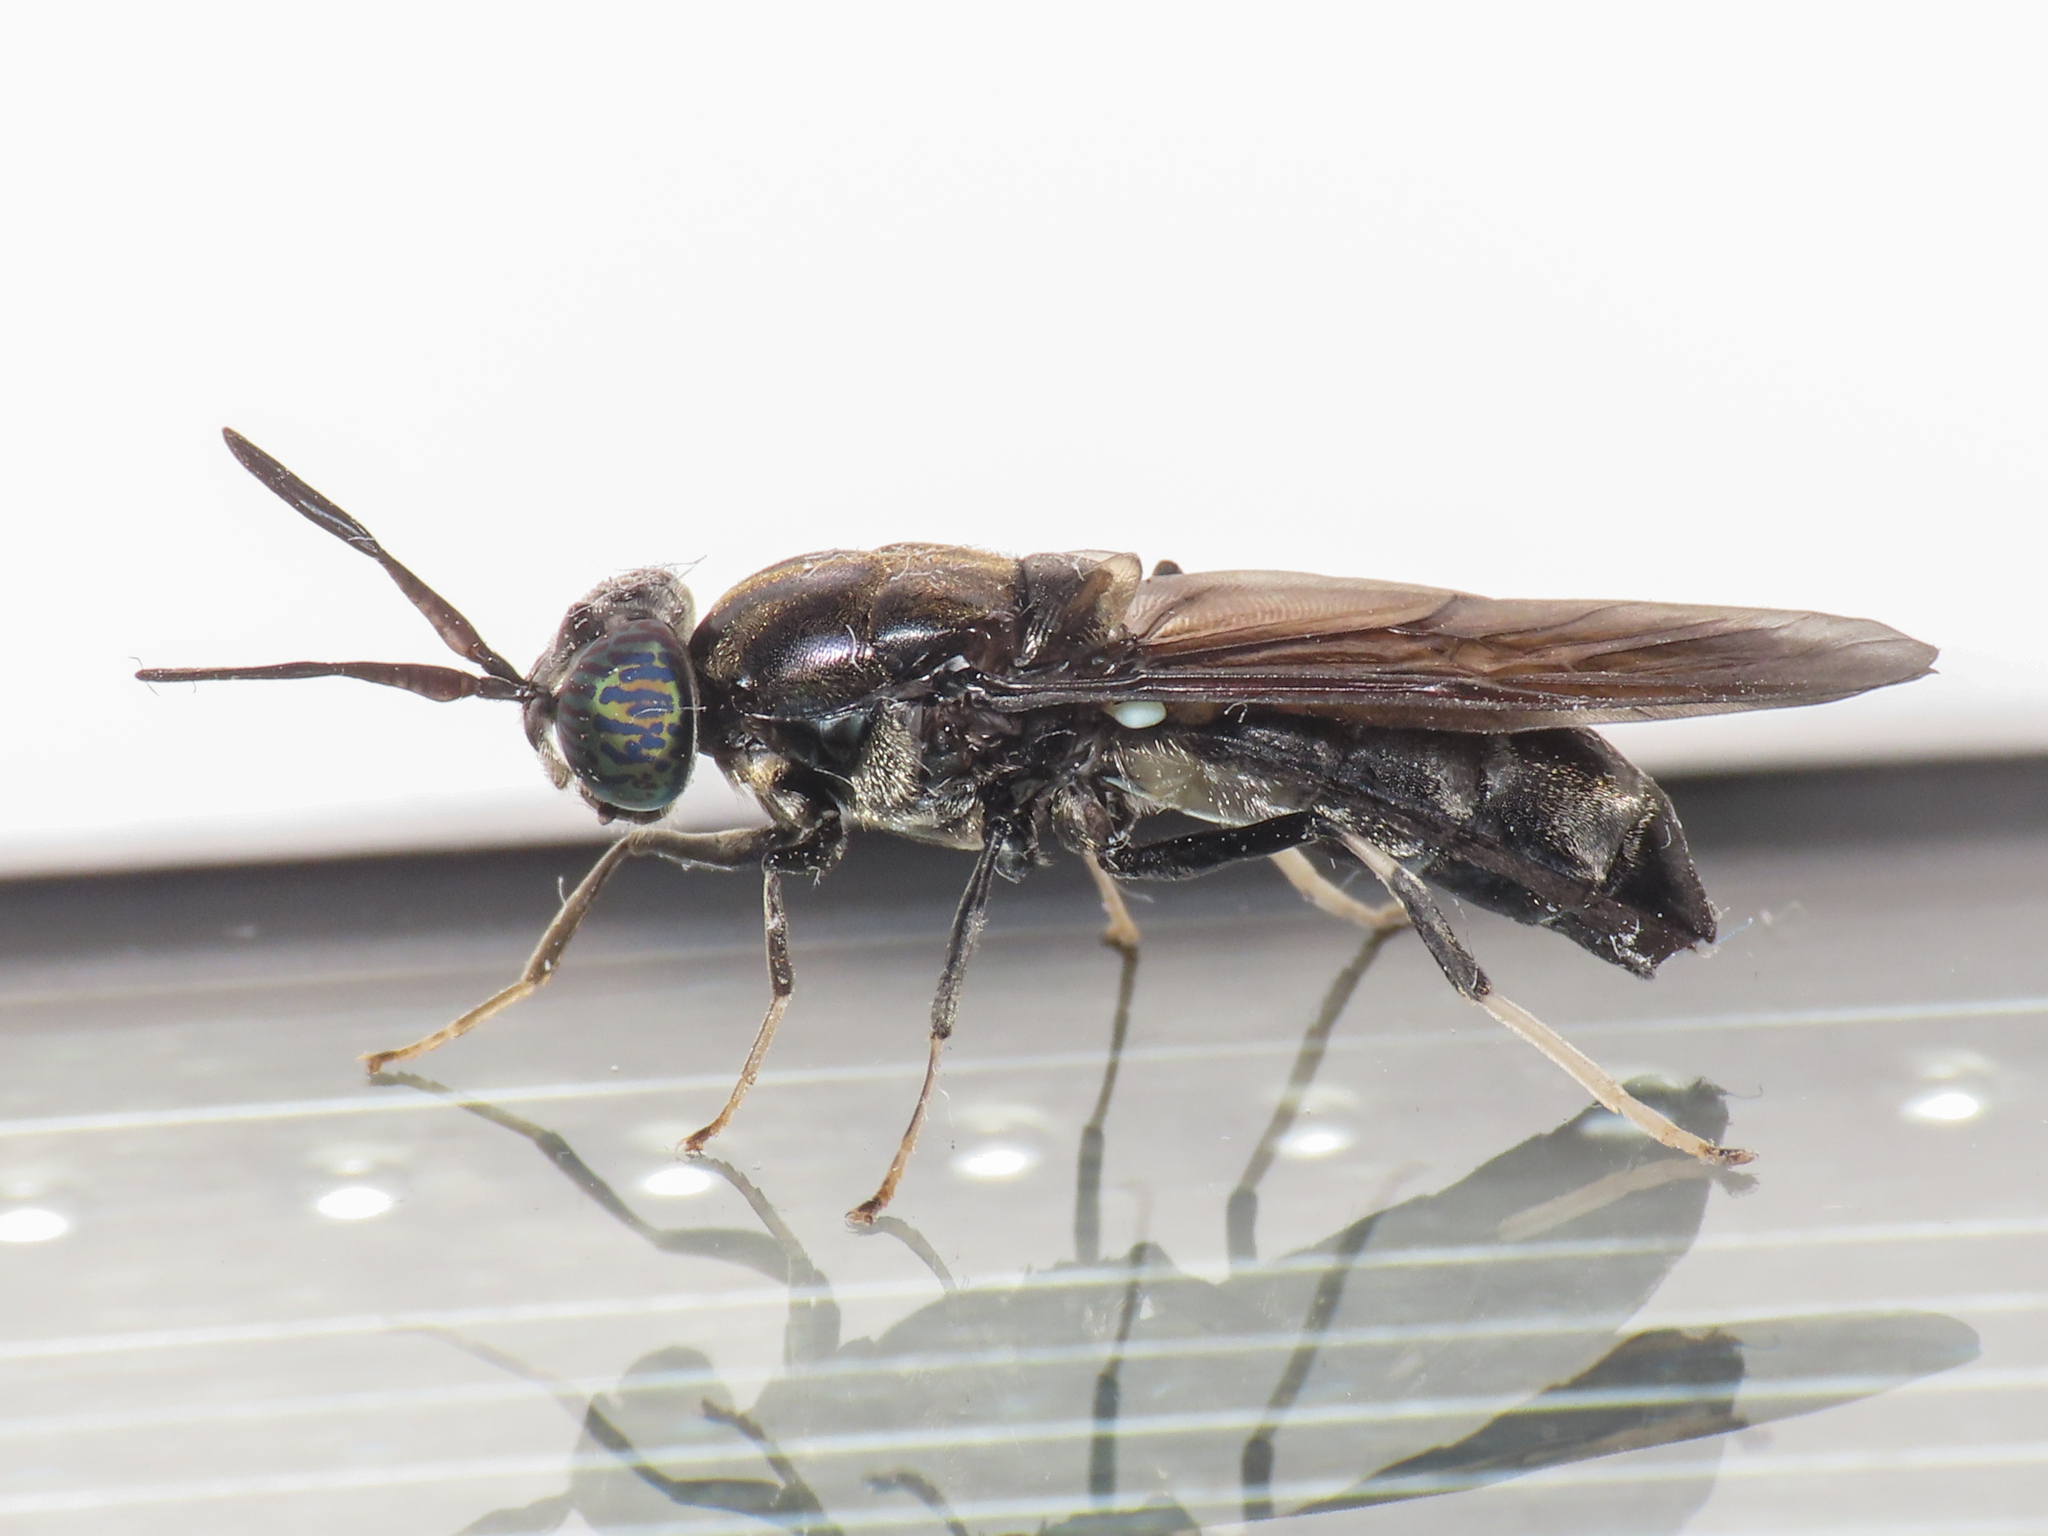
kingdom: Animalia
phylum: Arthropoda
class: Insecta
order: Diptera
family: Stratiomyidae
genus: Hermetia
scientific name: Hermetia illucens
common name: Black soldier fly
